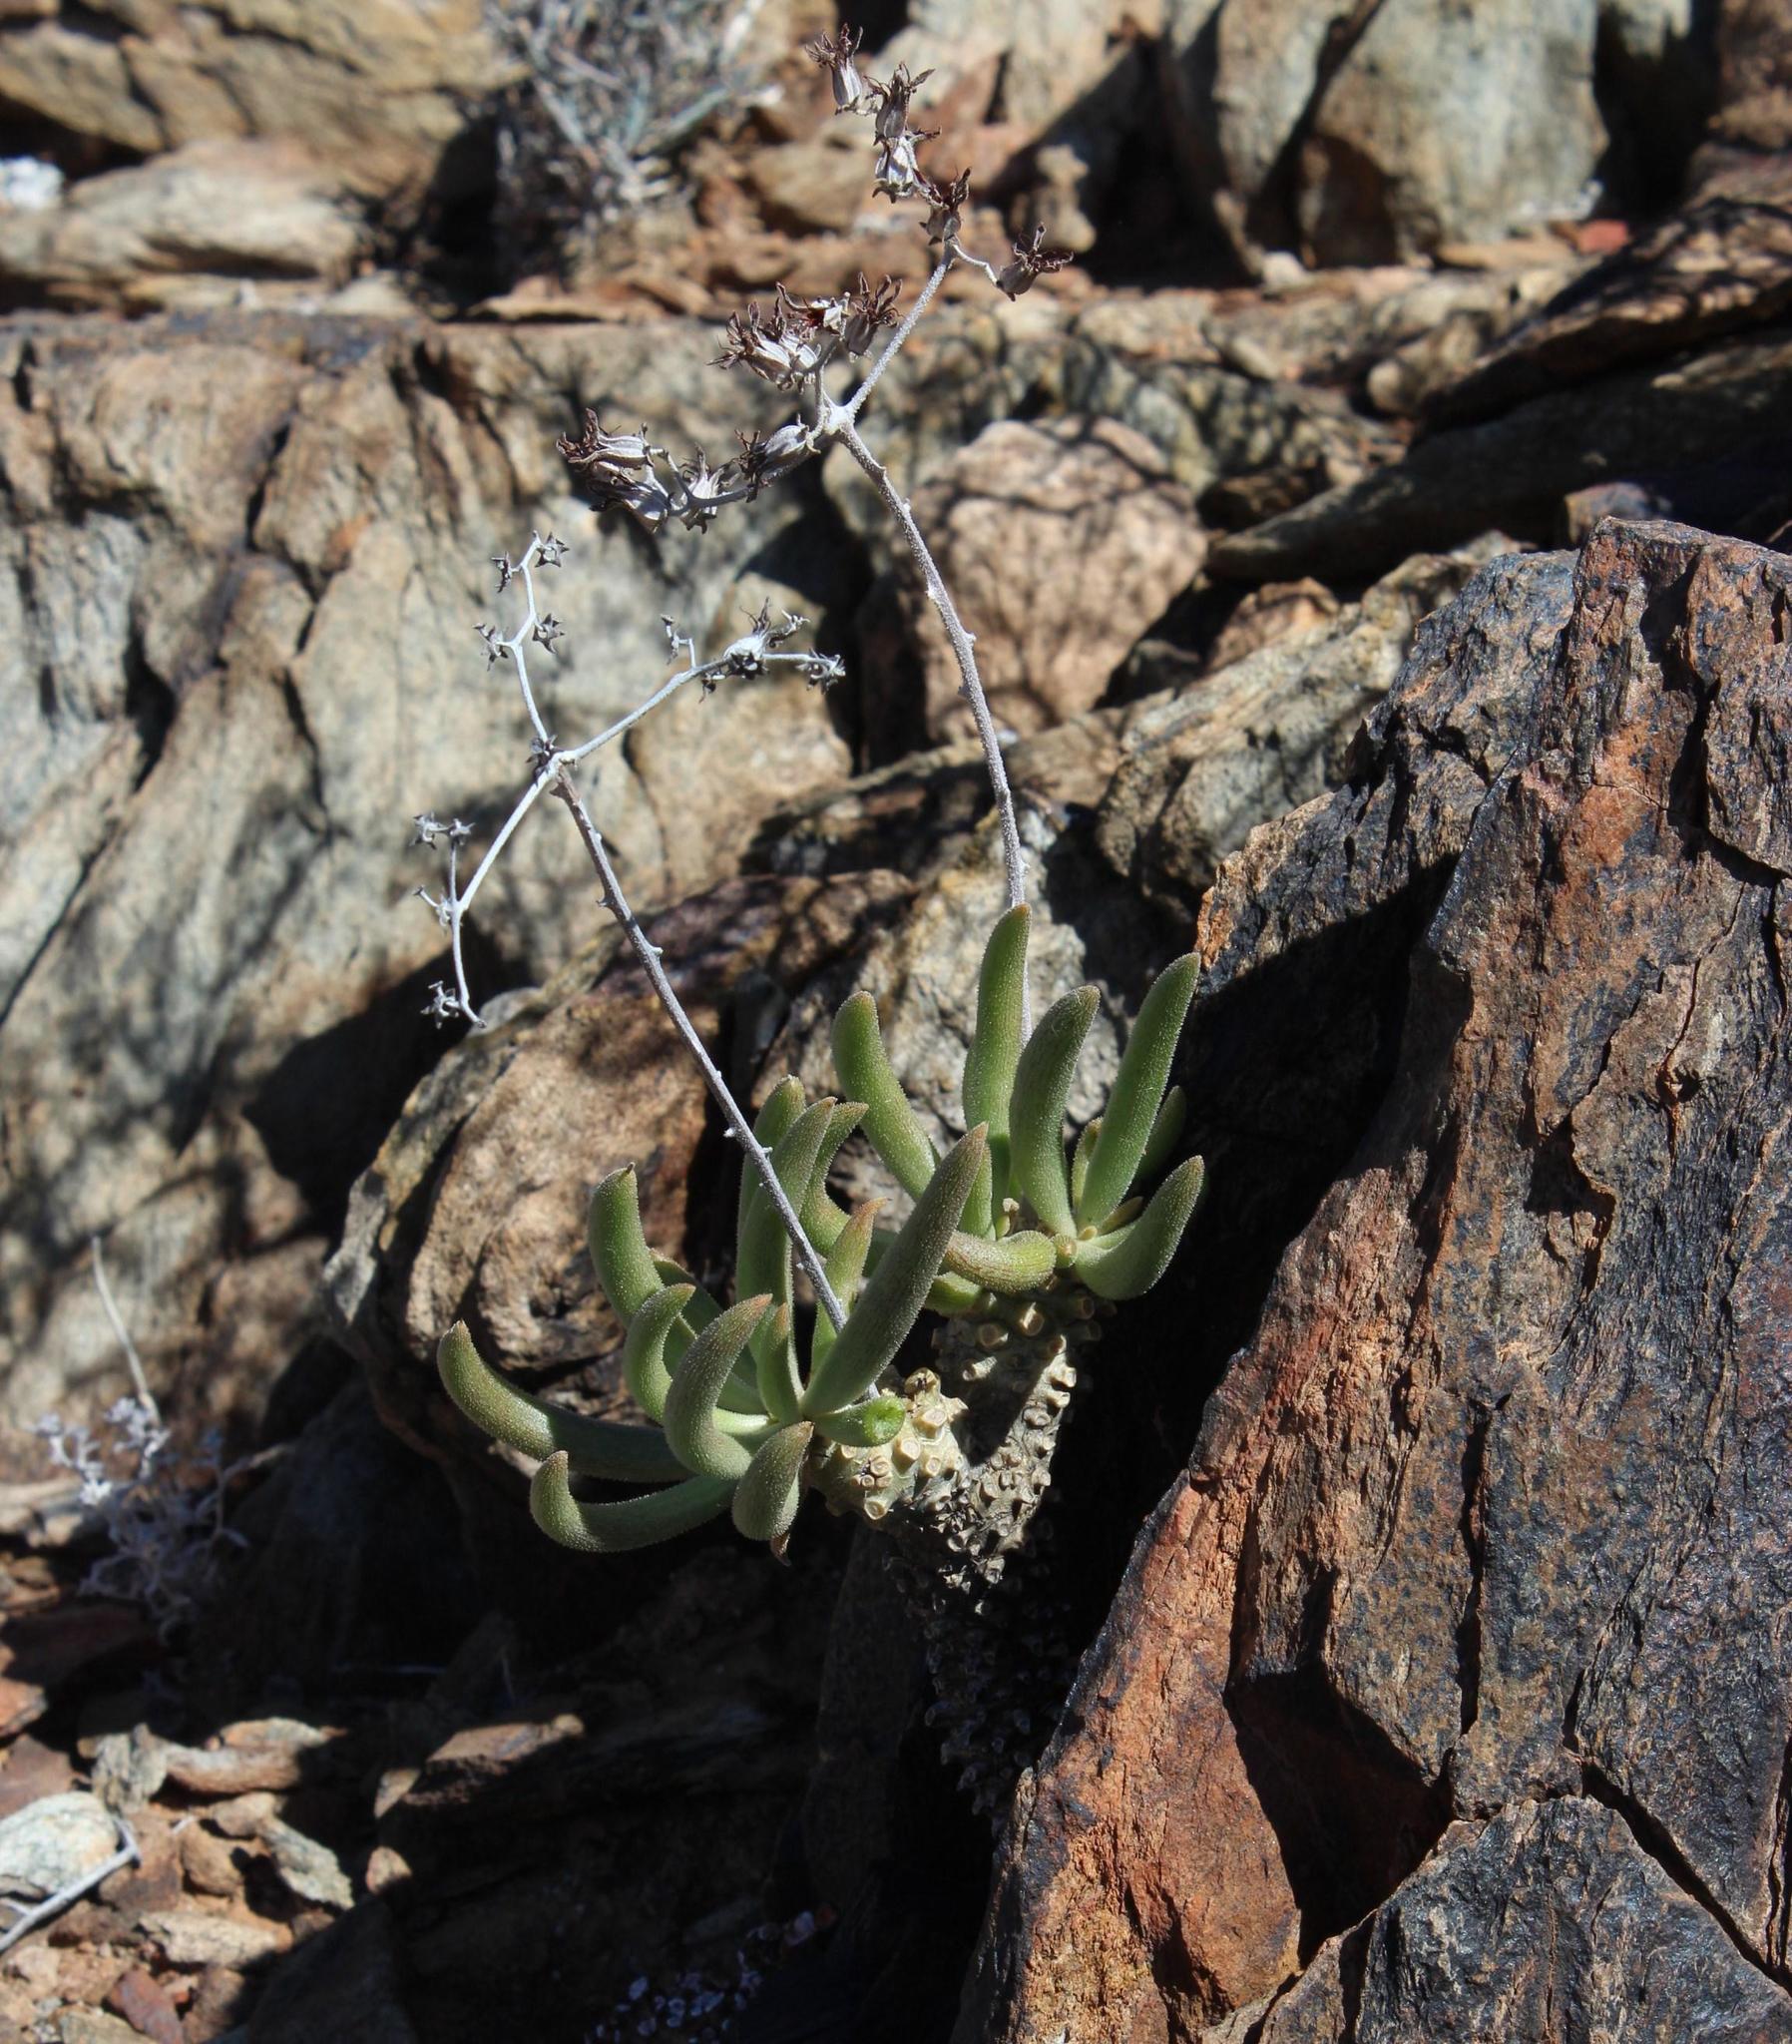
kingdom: Plantae
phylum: Tracheophyta
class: Magnoliopsida
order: Saxifragales
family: Crassulaceae
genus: Tylecodon
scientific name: Tylecodon rubrovenosus
